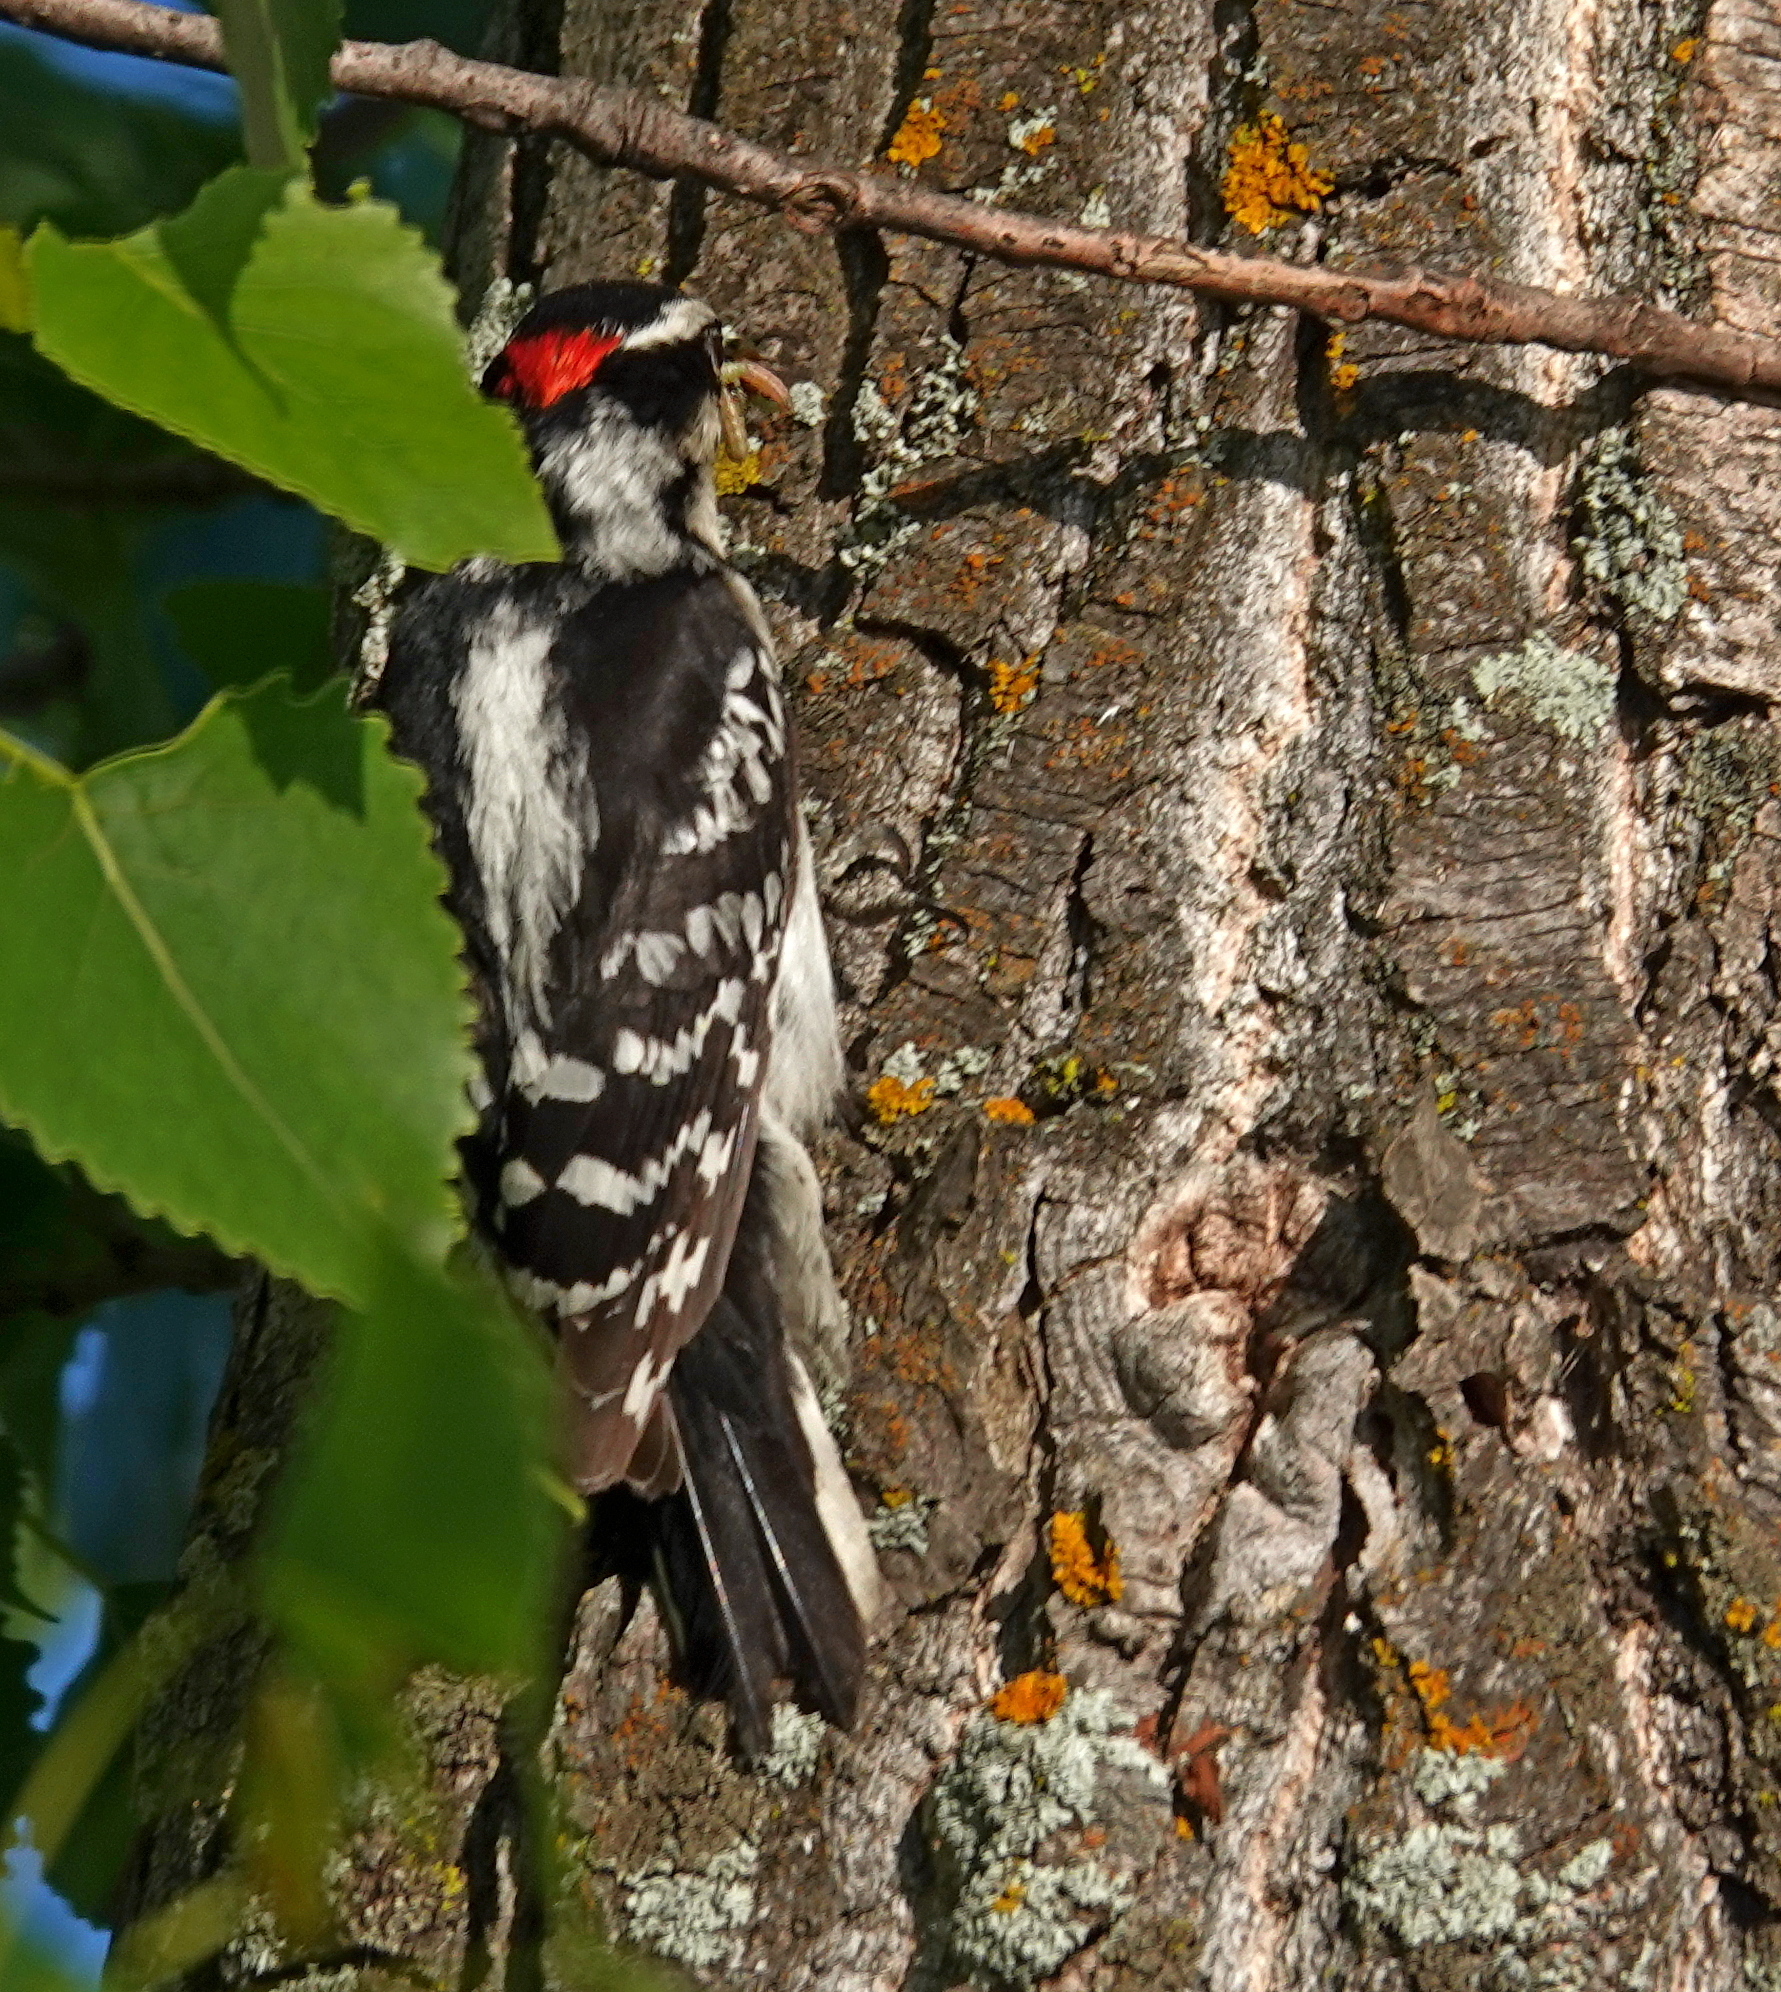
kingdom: Animalia
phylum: Chordata
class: Aves
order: Piciformes
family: Picidae
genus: Dryobates
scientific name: Dryobates pubescens
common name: Downy woodpecker
